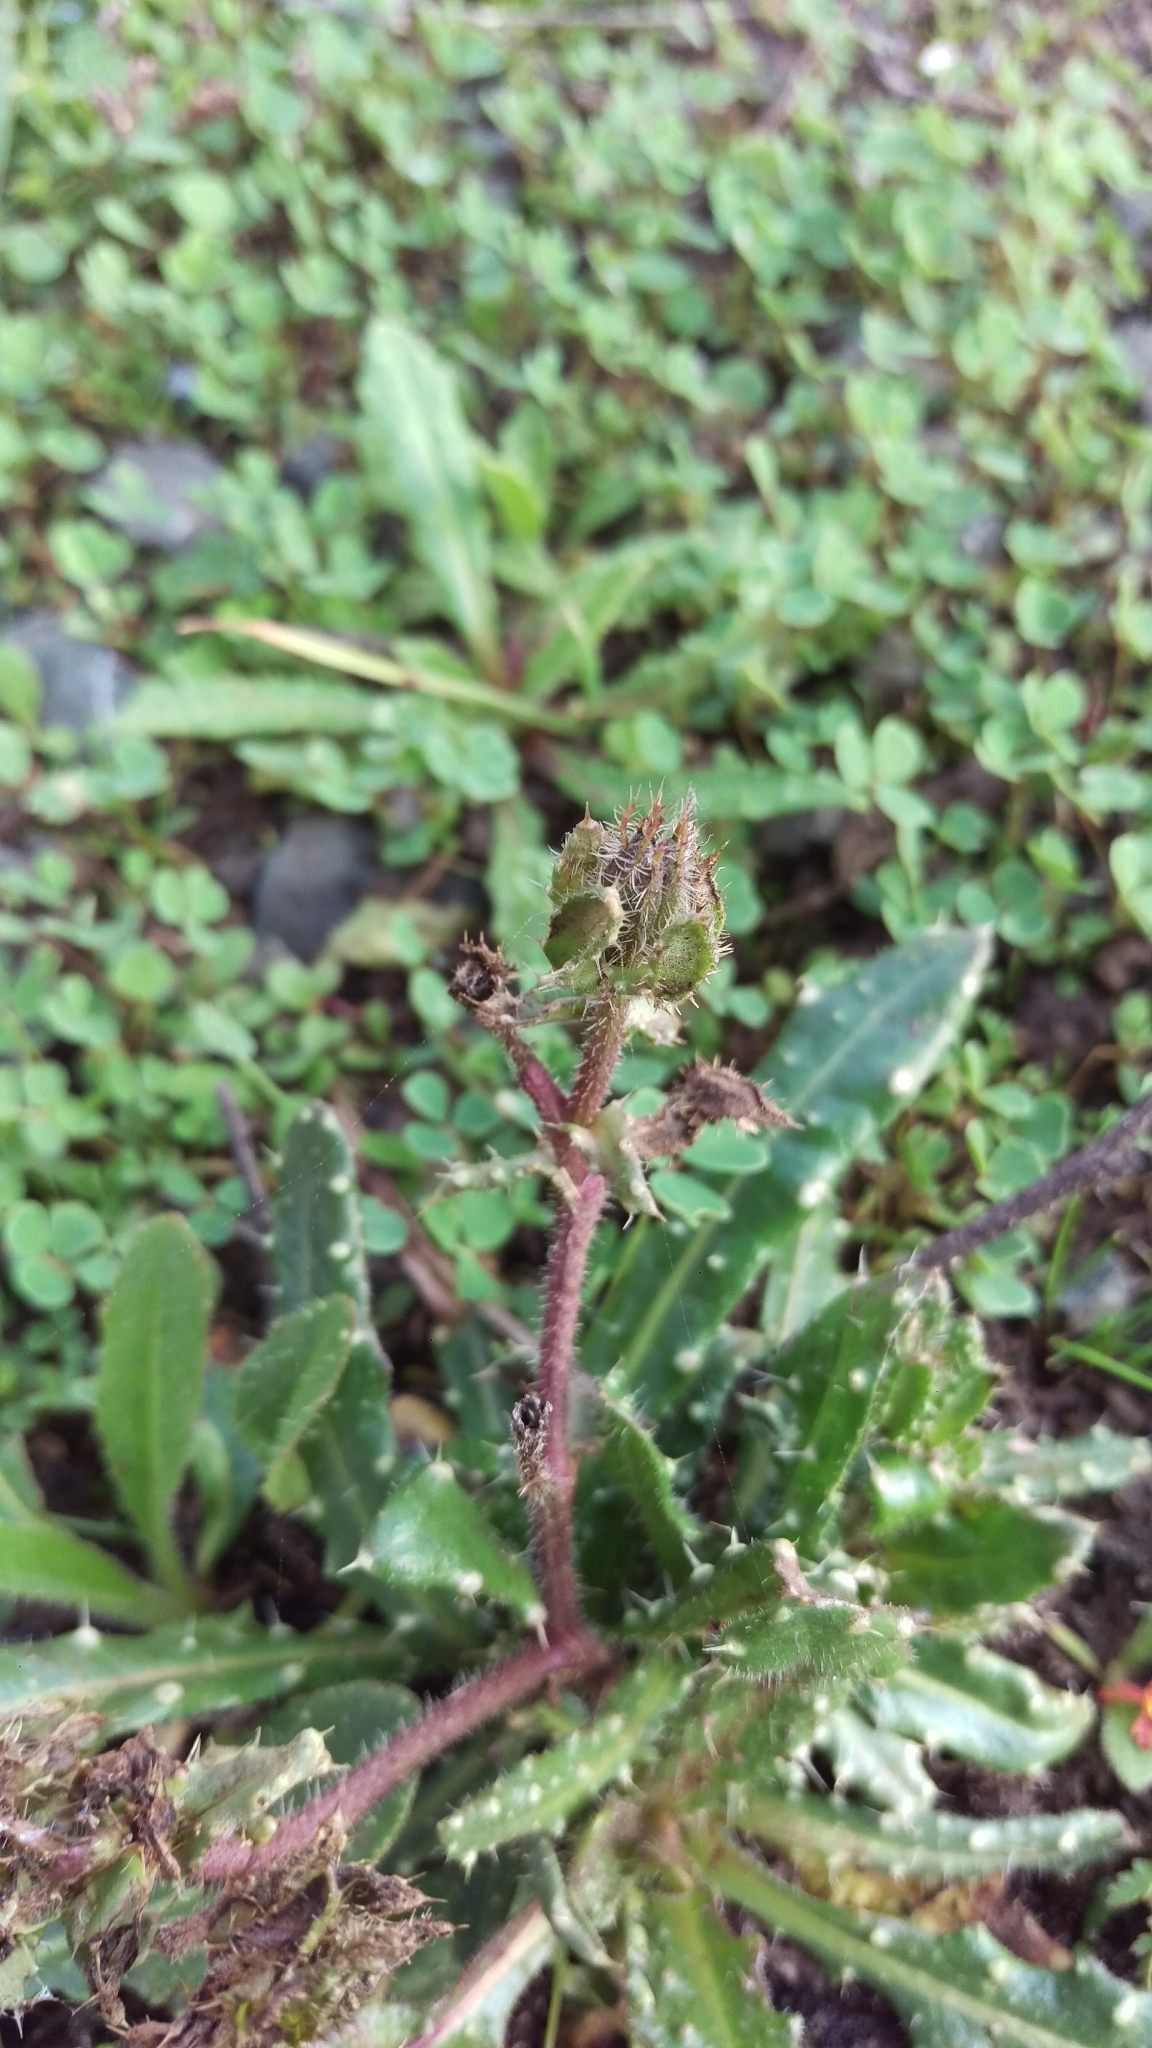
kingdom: Plantae
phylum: Tracheophyta
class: Magnoliopsida
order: Asterales
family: Asteraceae
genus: Helminthotheca
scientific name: Helminthotheca echioides
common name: Ox-tongue
